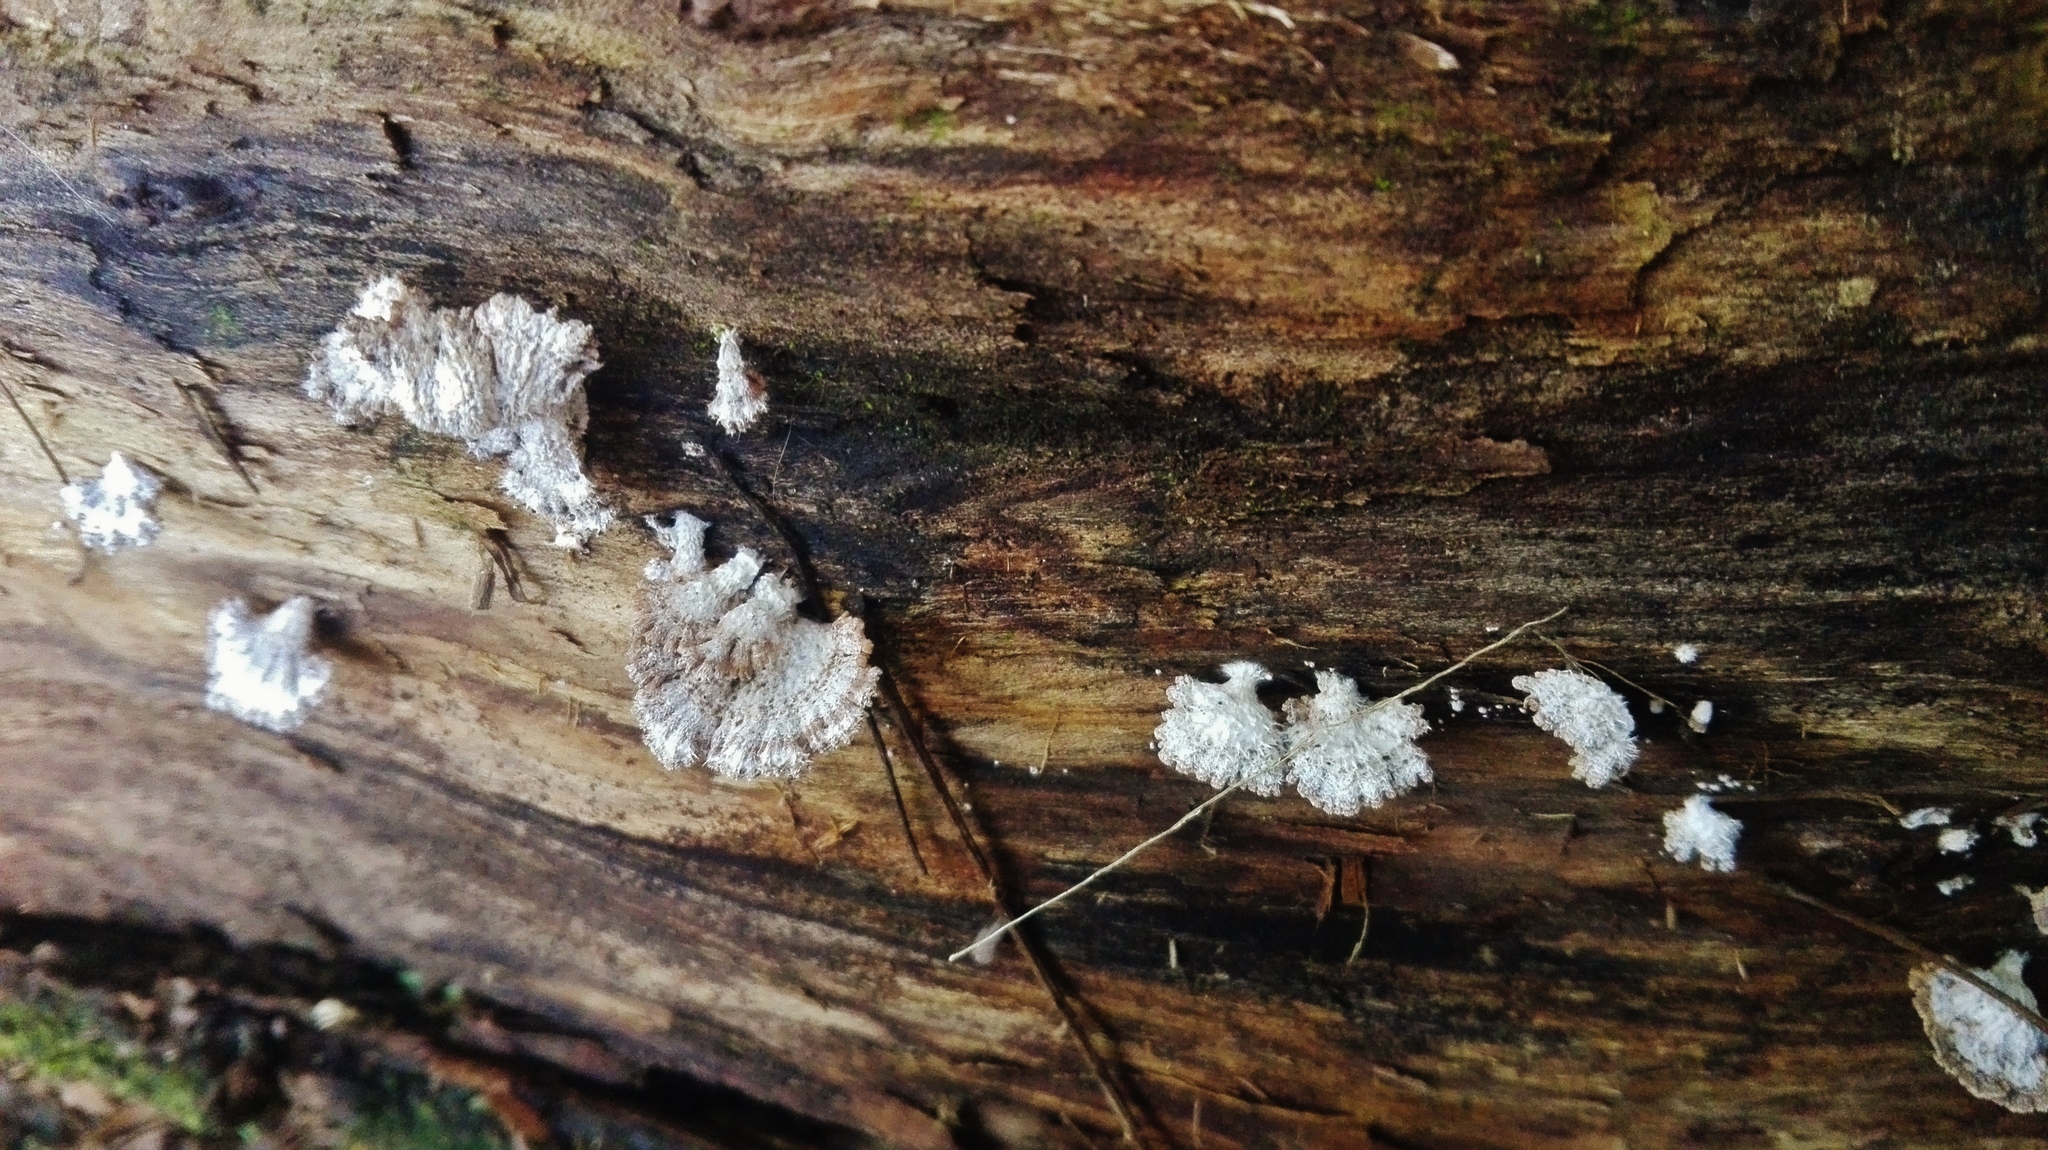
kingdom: Fungi
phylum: Basidiomycota
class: Agaricomycetes
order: Agaricales
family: Schizophyllaceae
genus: Schizophyllum
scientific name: Schizophyllum commune
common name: Common porecrust
